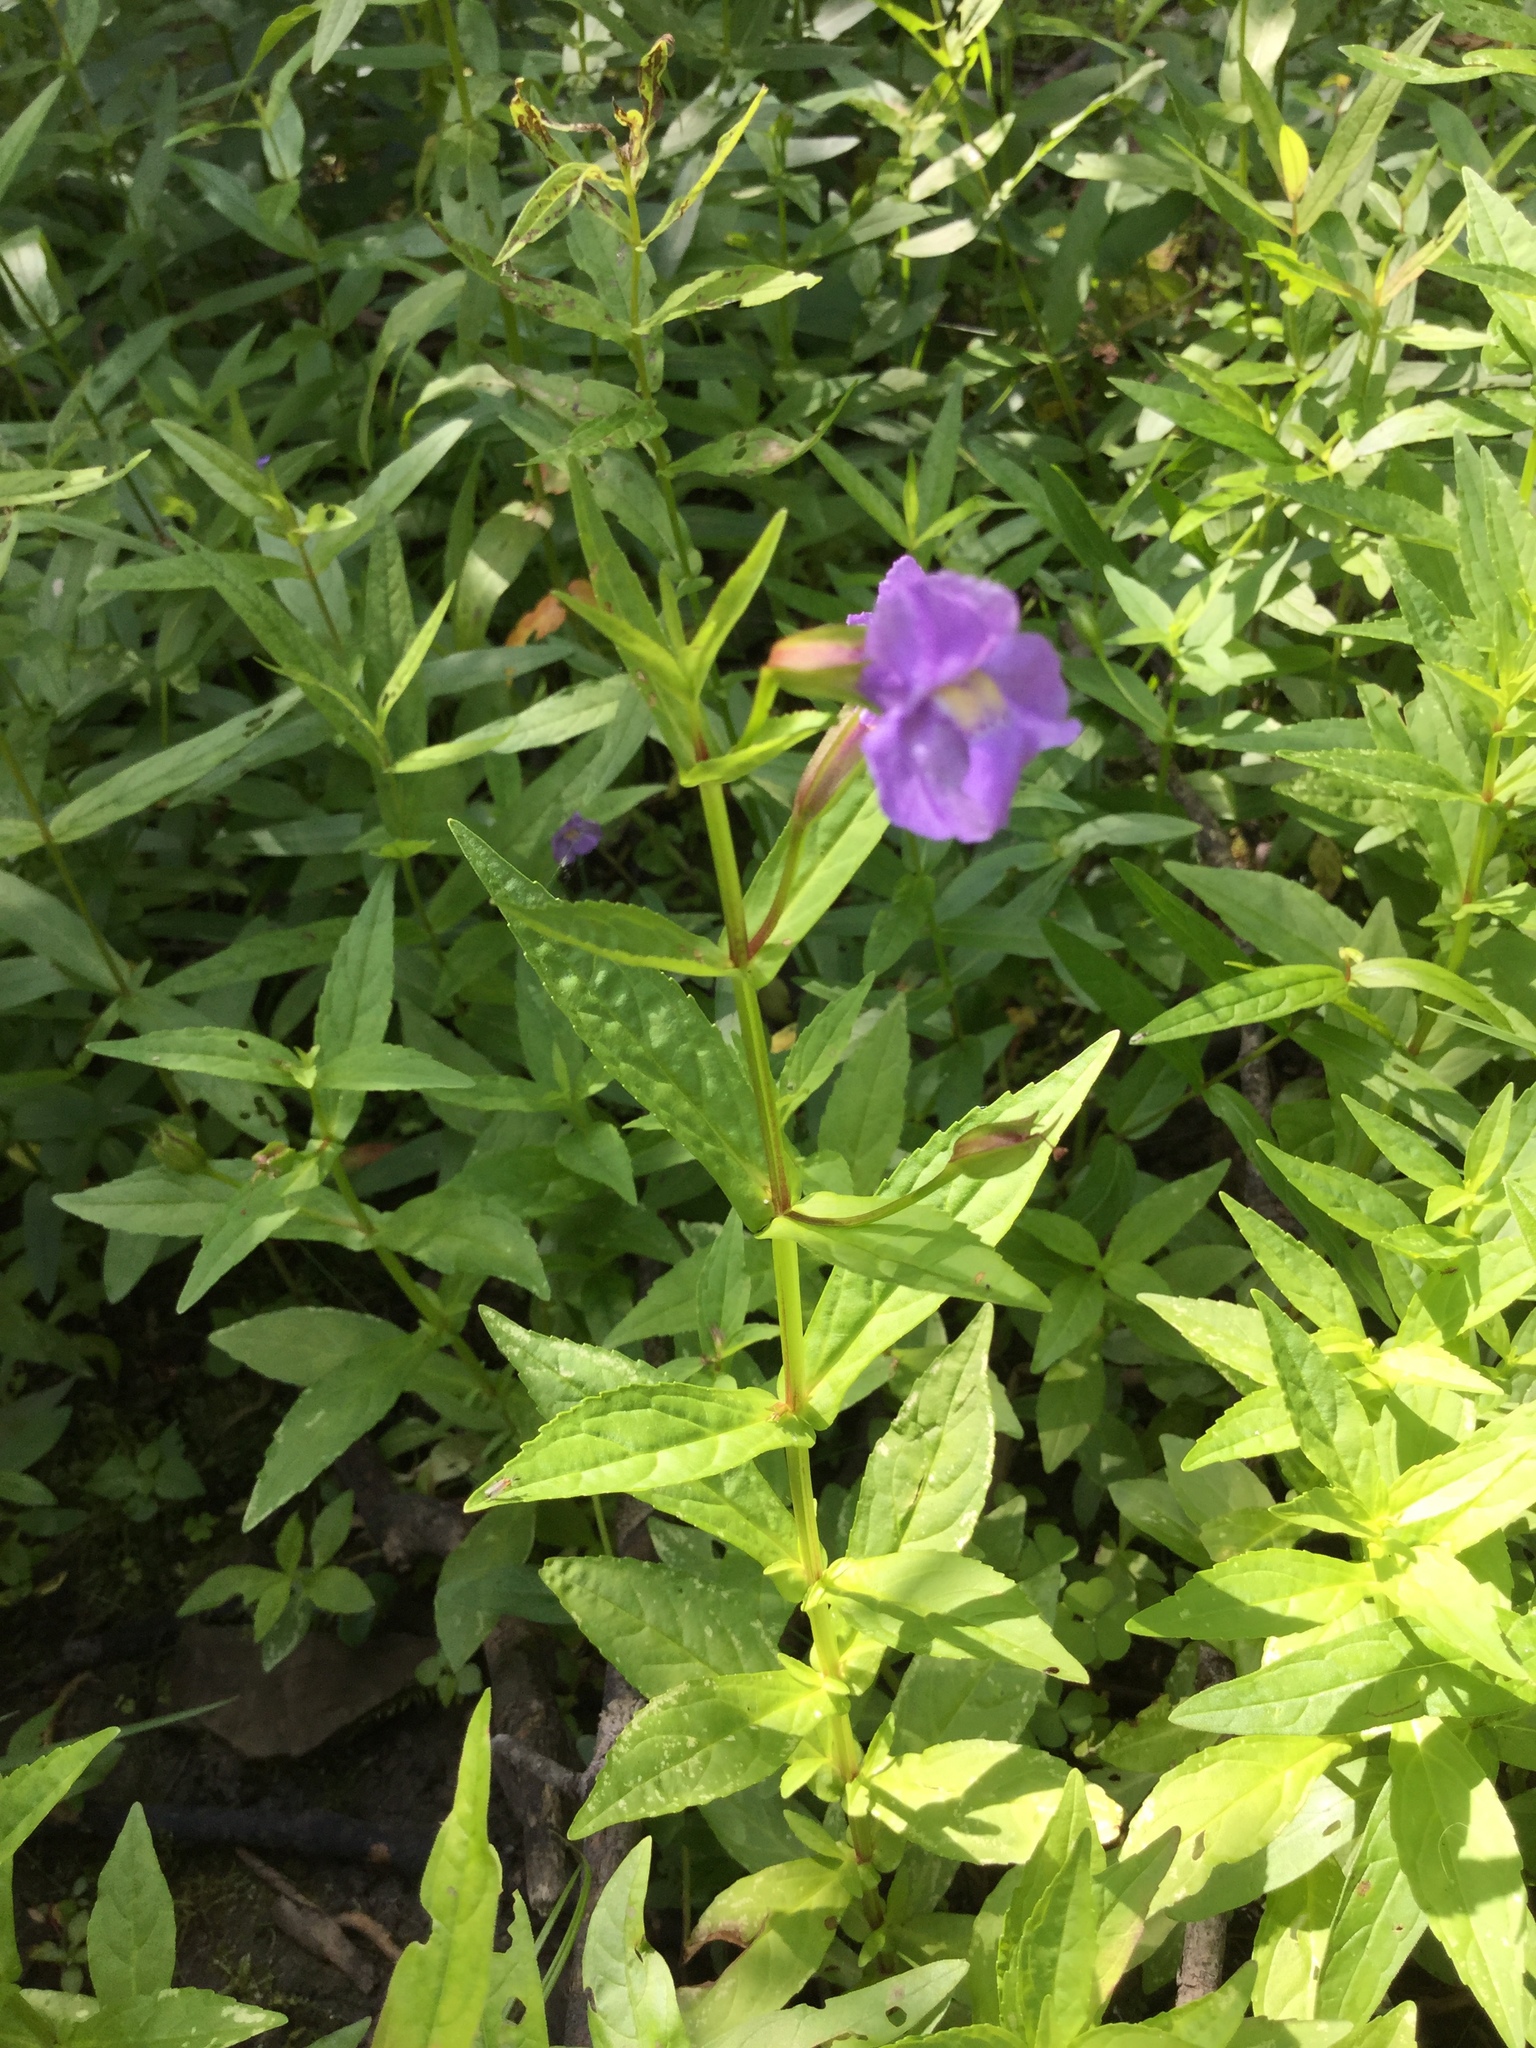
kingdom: Plantae
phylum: Tracheophyta
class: Magnoliopsida
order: Lamiales
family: Phrymaceae
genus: Mimulus
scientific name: Mimulus ringens
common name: Allegheny monkeyflower
